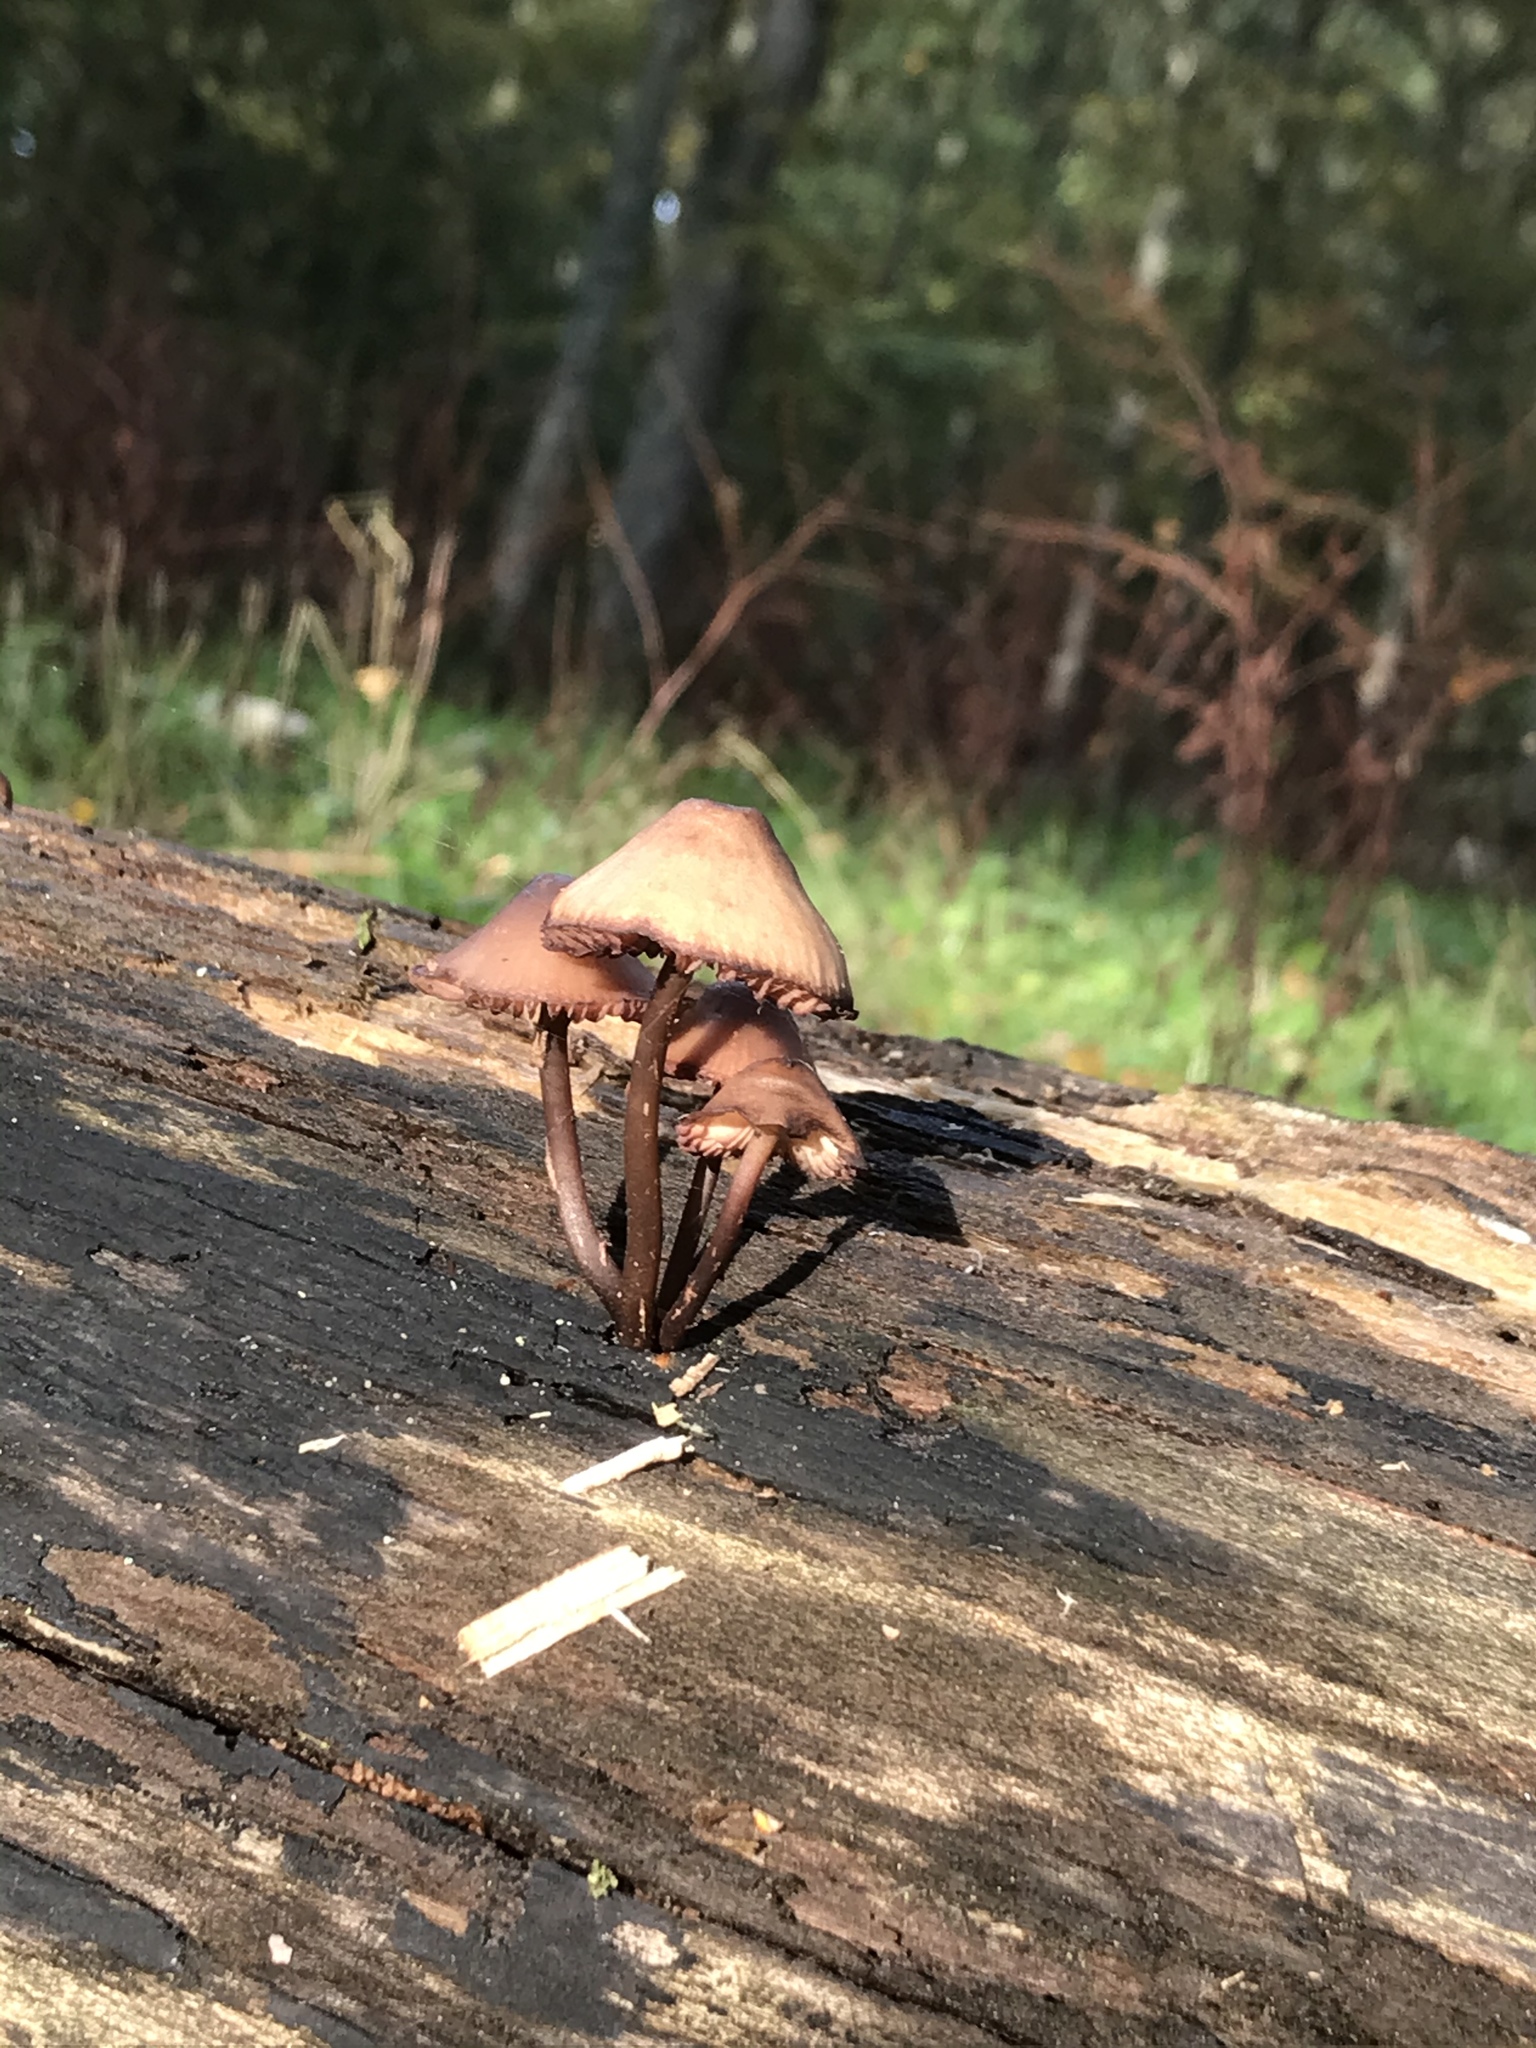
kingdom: Fungi
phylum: Basidiomycota
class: Agaricomycetes
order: Agaricales
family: Mycenaceae
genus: Mycena
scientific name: Mycena haematopus
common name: Burgundydrop bonnet
